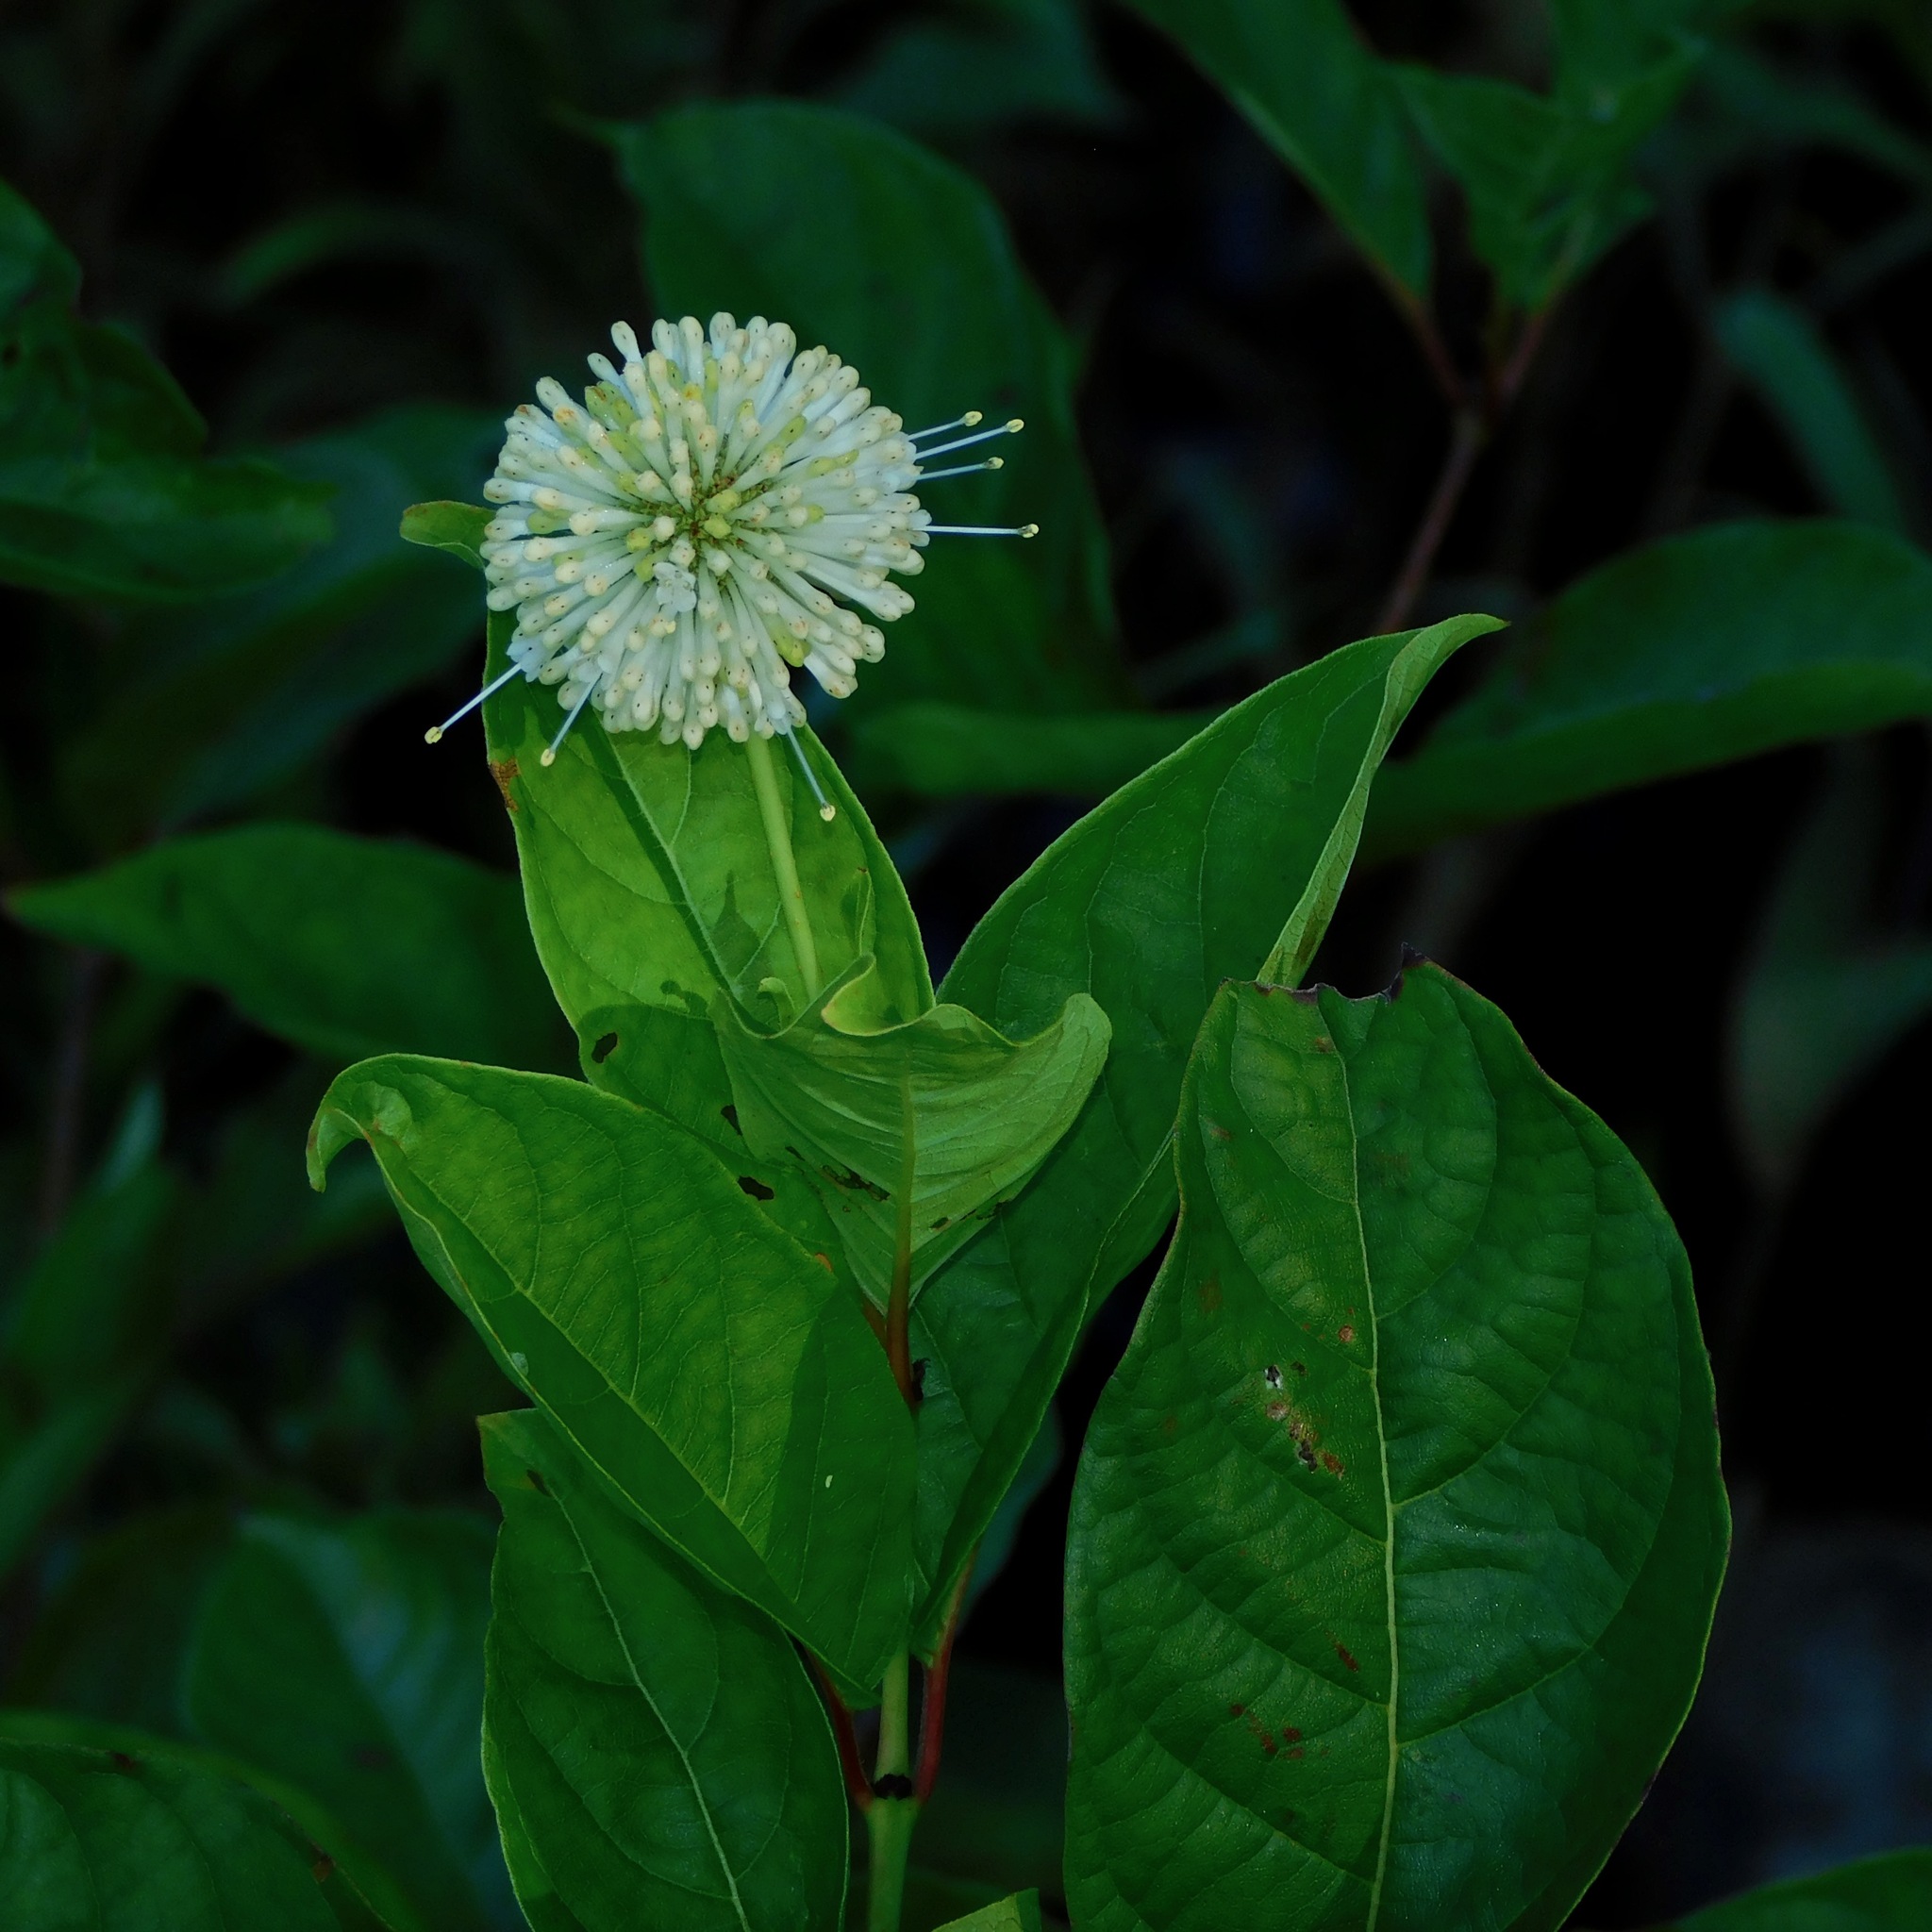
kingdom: Plantae
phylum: Tracheophyta
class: Magnoliopsida
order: Gentianales
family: Rubiaceae
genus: Cephalanthus
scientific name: Cephalanthus occidentalis
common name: Button-willow
